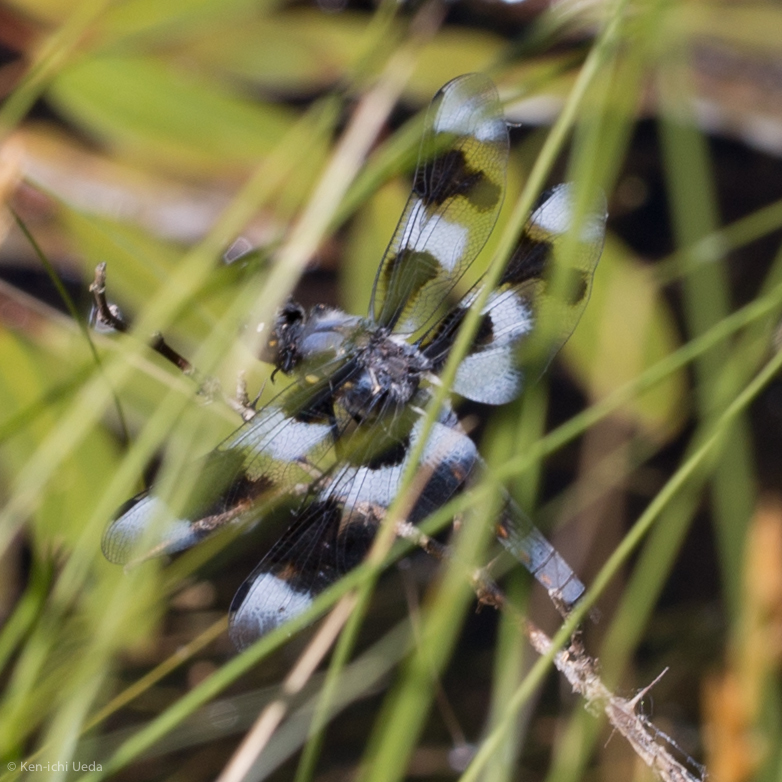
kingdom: Animalia
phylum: Arthropoda
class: Insecta
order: Odonata
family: Libellulidae
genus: Libellula
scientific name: Libellula forensis
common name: Eight-spotted skimmer
